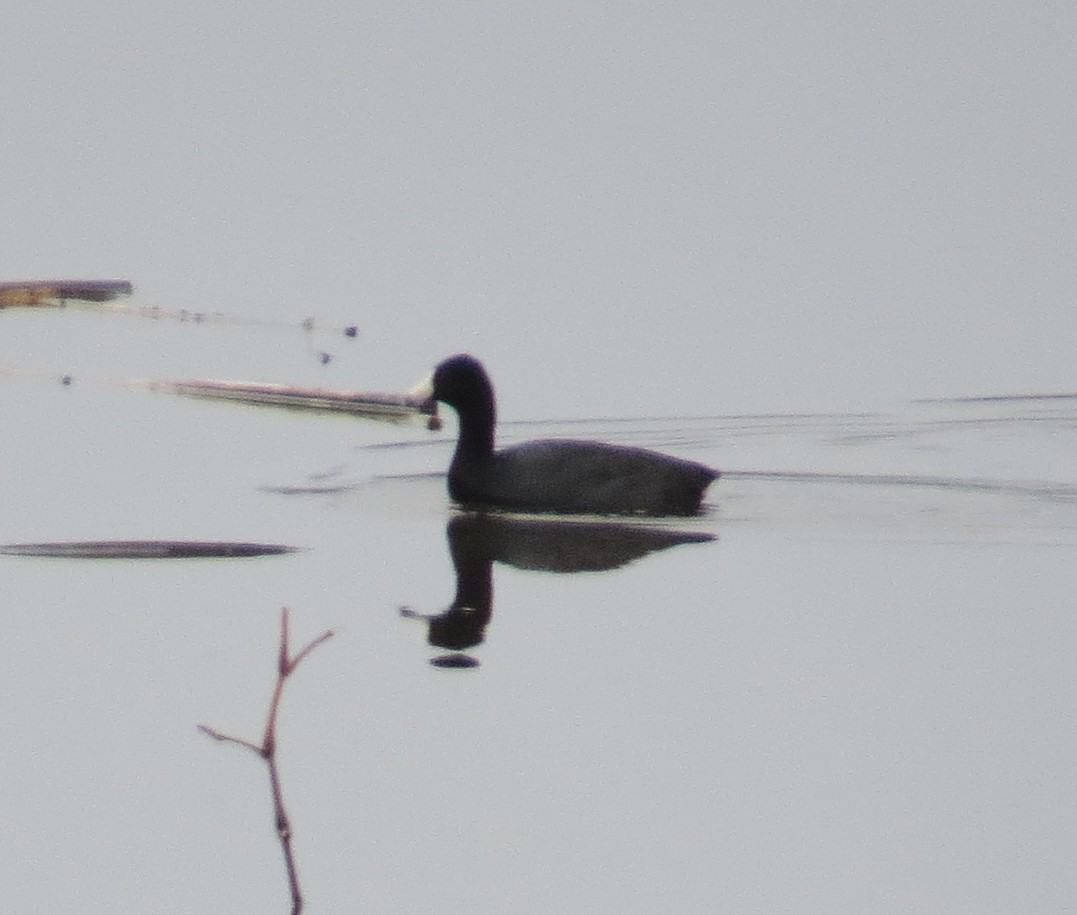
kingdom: Animalia
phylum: Chordata
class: Aves
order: Gruiformes
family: Rallidae
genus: Fulica
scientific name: Fulica americana
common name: American coot
